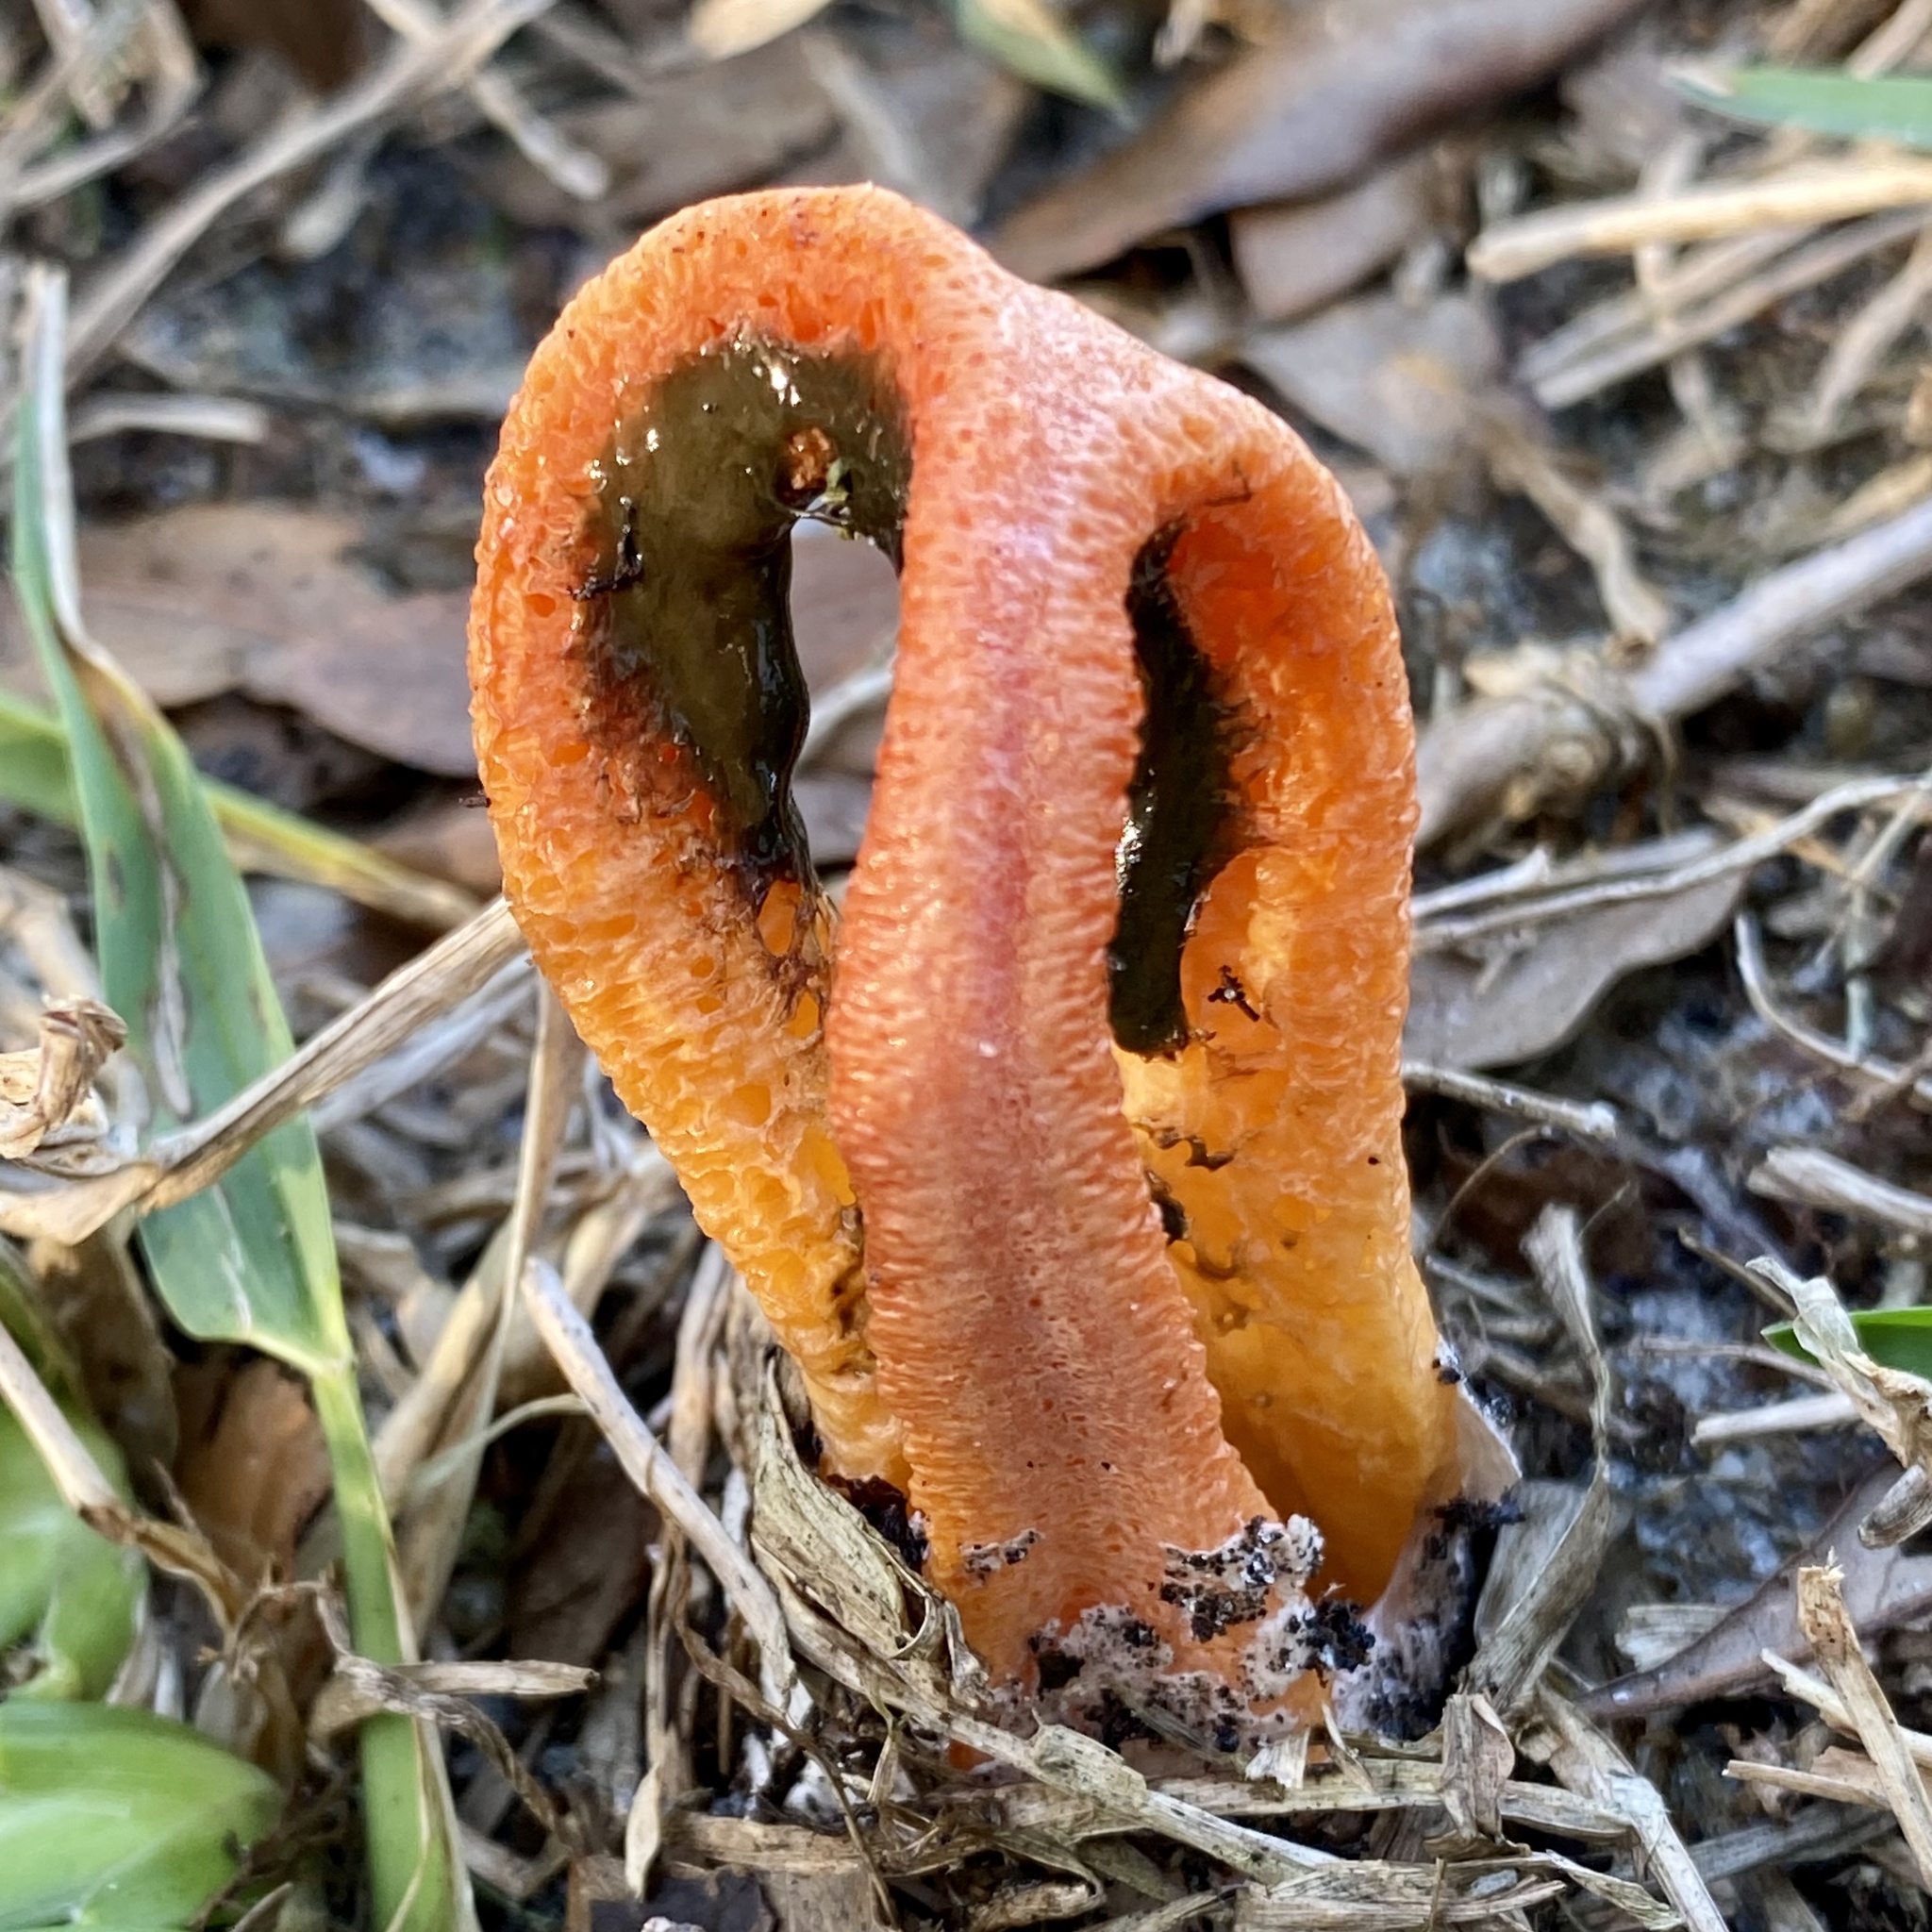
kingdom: Fungi
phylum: Basidiomycota
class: Agaricomycetes
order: Phallales
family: Phallaceae
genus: Clathrus
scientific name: Clathrus columnatus
